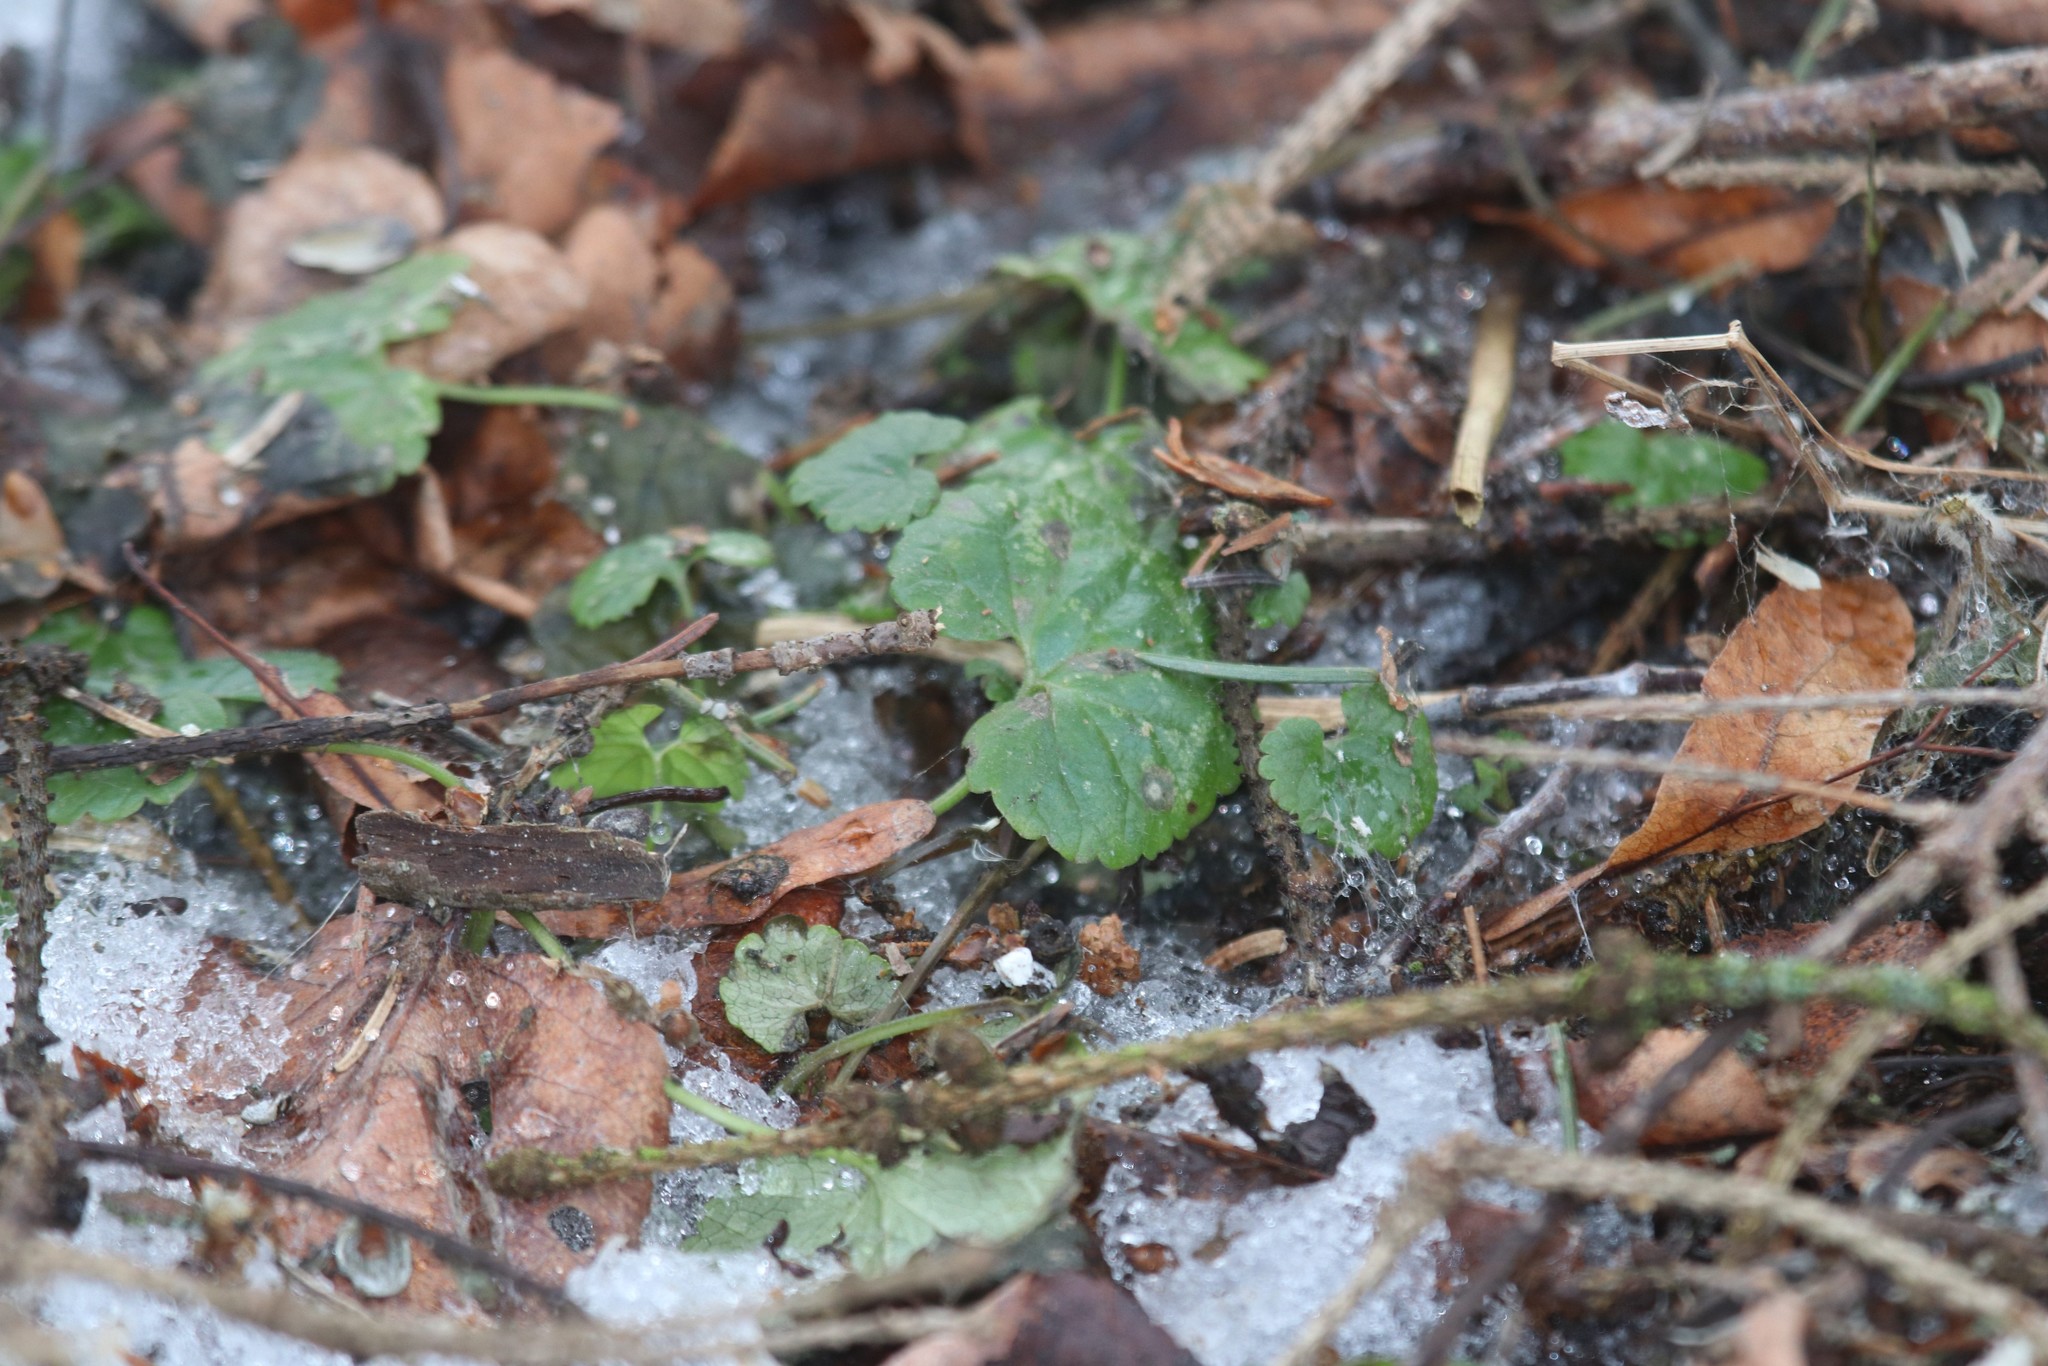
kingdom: Plantae
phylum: Tracheophyta
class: Magnoliopsida
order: Lamiales
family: Lamiaceae
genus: Glechoma
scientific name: Glechoma hederacea
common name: Ground ivy
